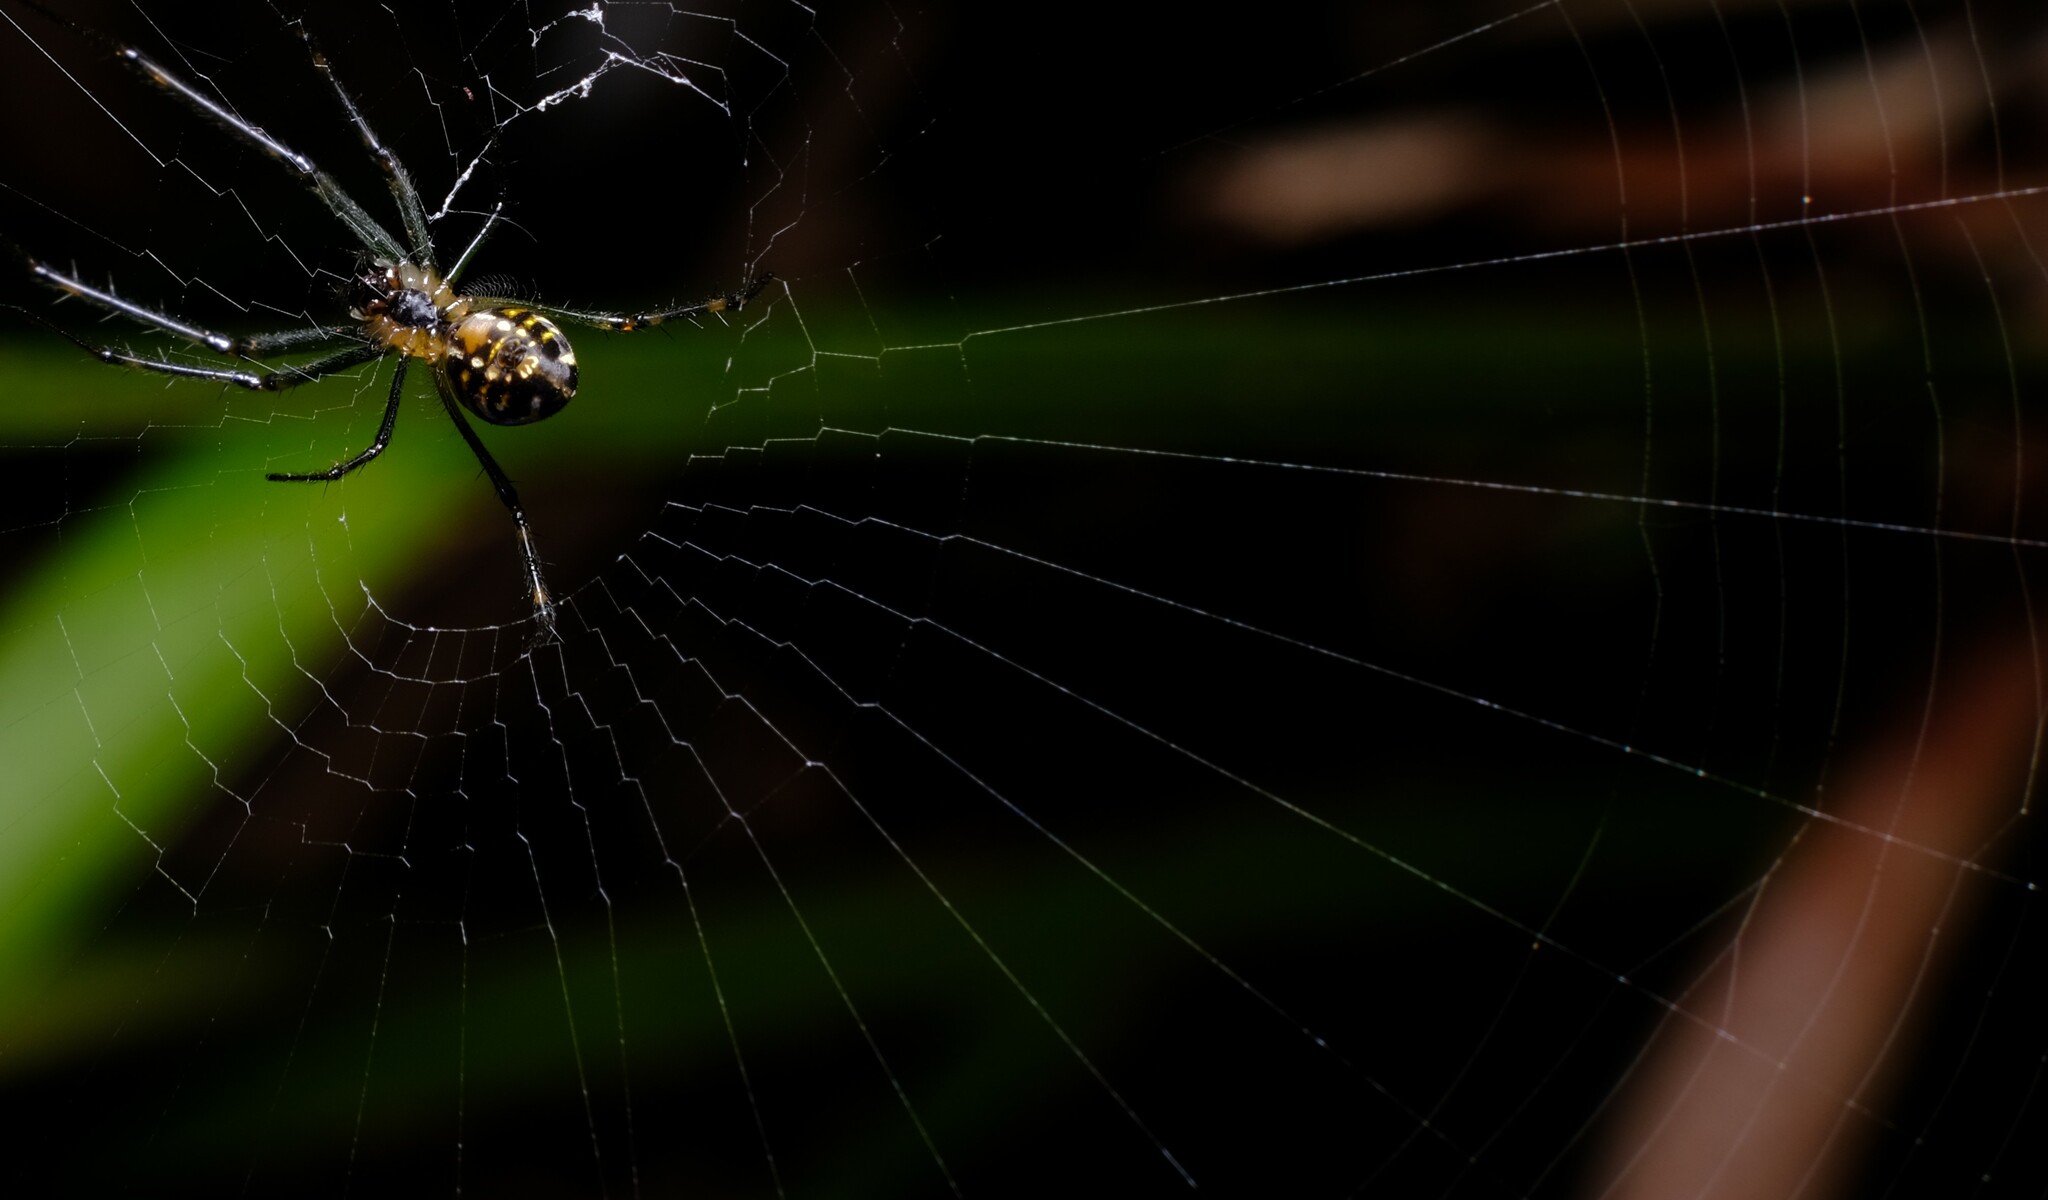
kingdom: Animalia
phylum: Arthropoda
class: Arachnida
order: Araneae
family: Tetragnathidae
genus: Leucauge
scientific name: Leucauge dromedaria
